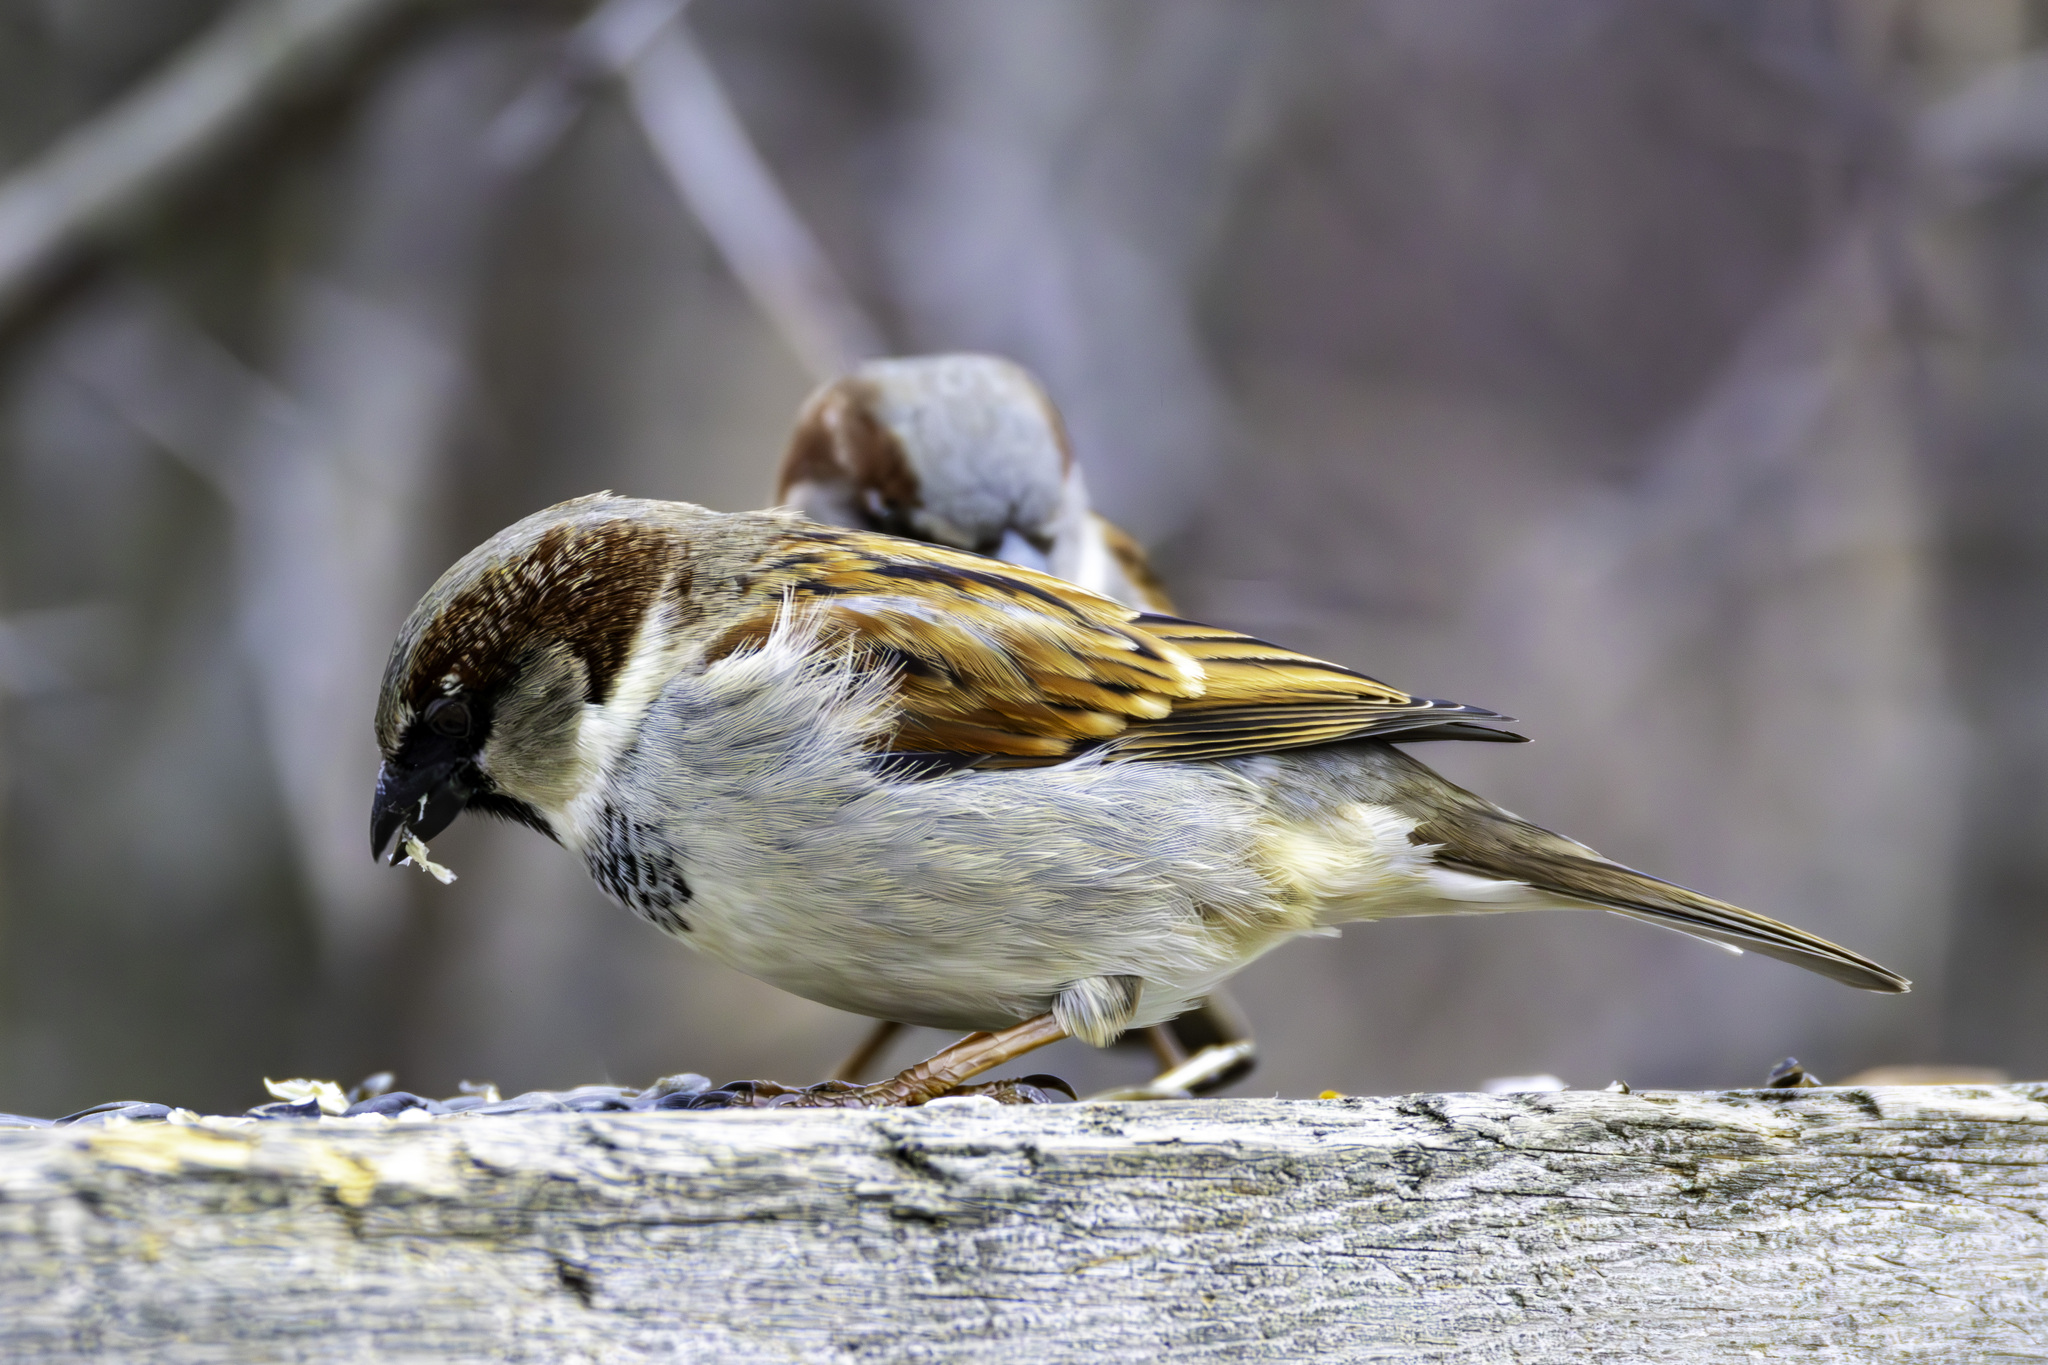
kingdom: Animalia
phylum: Chordata
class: Aves
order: Passeriformes
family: Passeridae
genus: Passer
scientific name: Passer domesticus
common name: House sparrow
